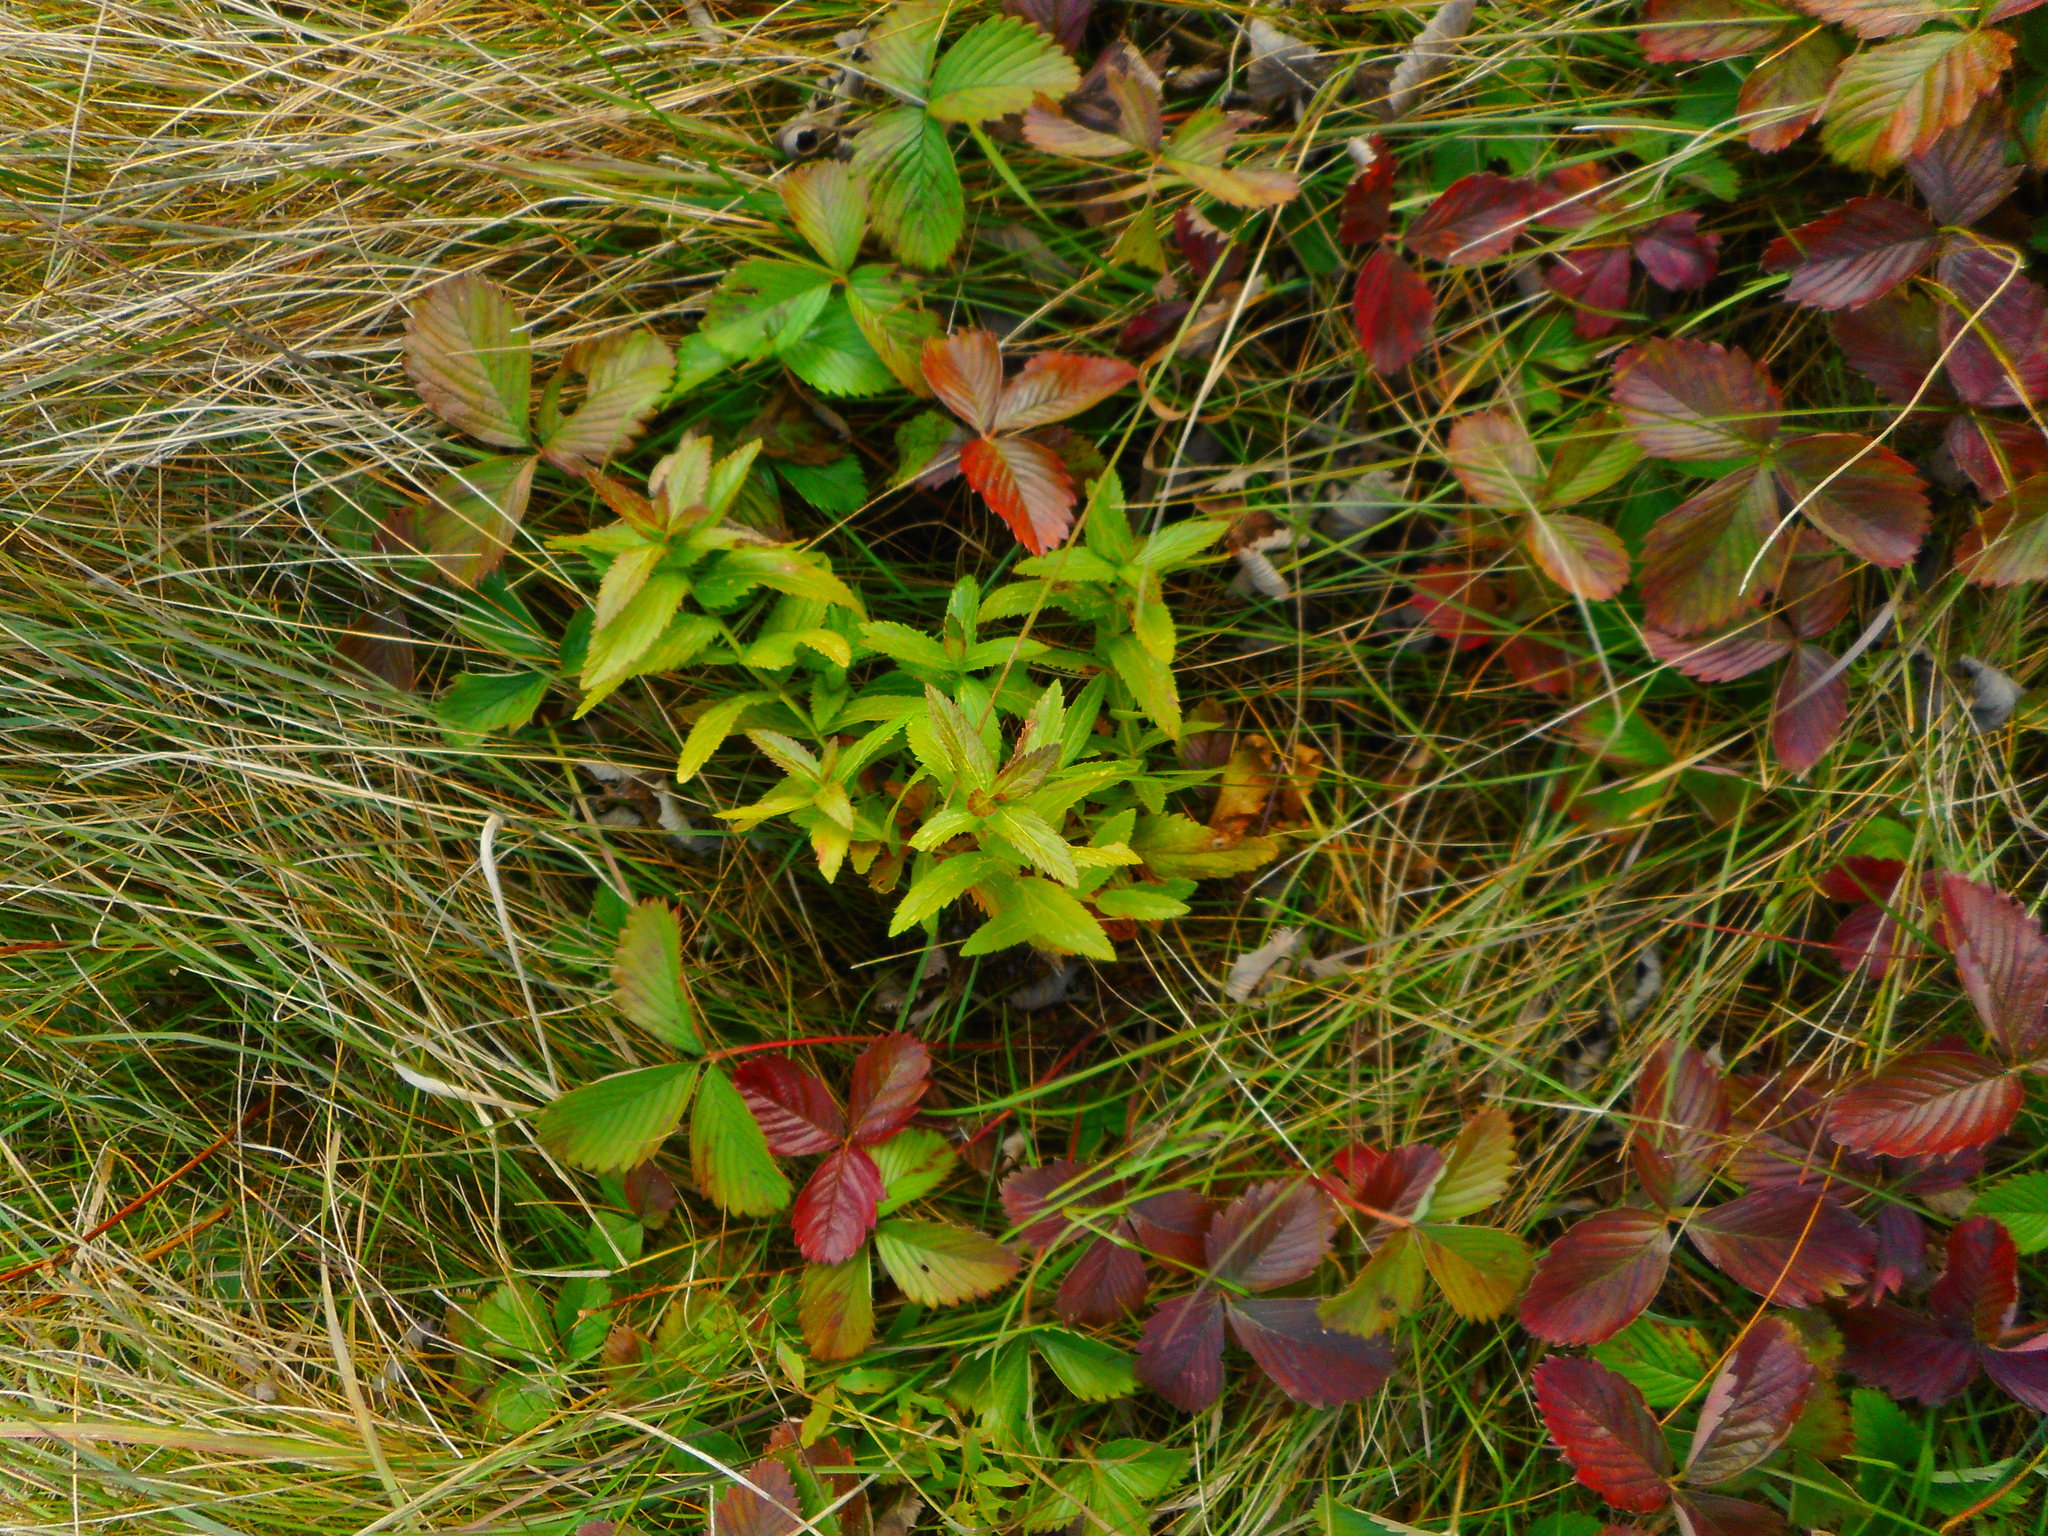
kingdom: Plantae
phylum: Tracheophyta
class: Magnoliopsida
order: Lamiales
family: Plantaginaceae
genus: Veronica
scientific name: Veronica teucrium
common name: Large speedwell
